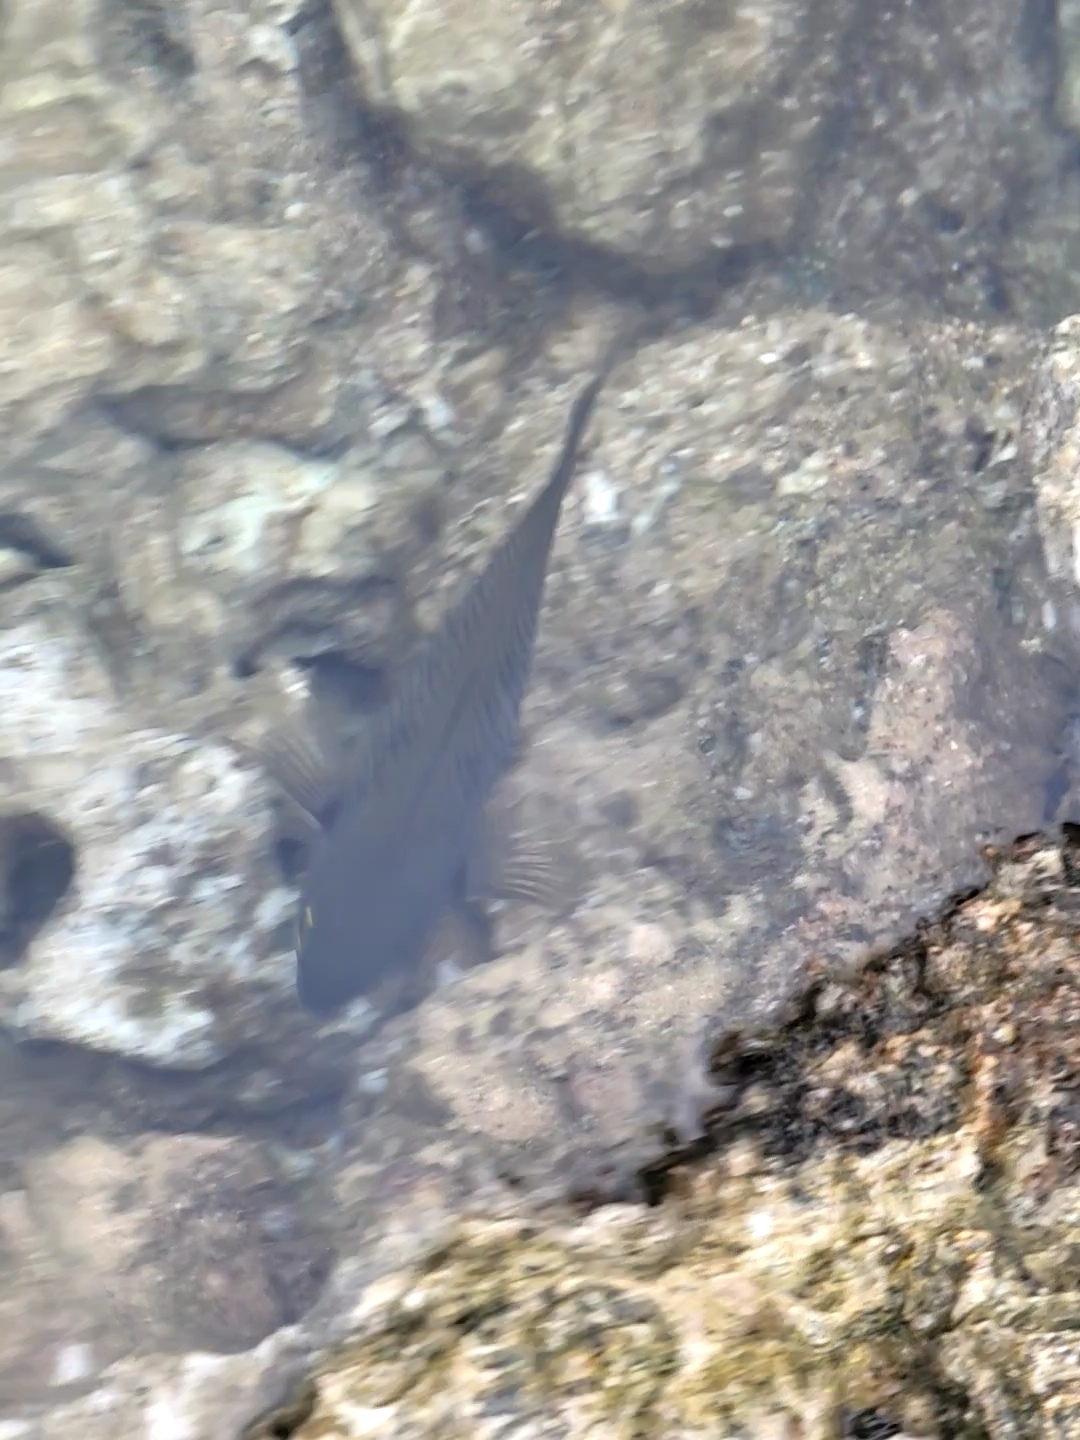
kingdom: Animalia
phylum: Chordata
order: Perciformes
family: Pomacentridae
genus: Stegastes
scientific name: Stegastes fasciolatus
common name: Pacific gregory
